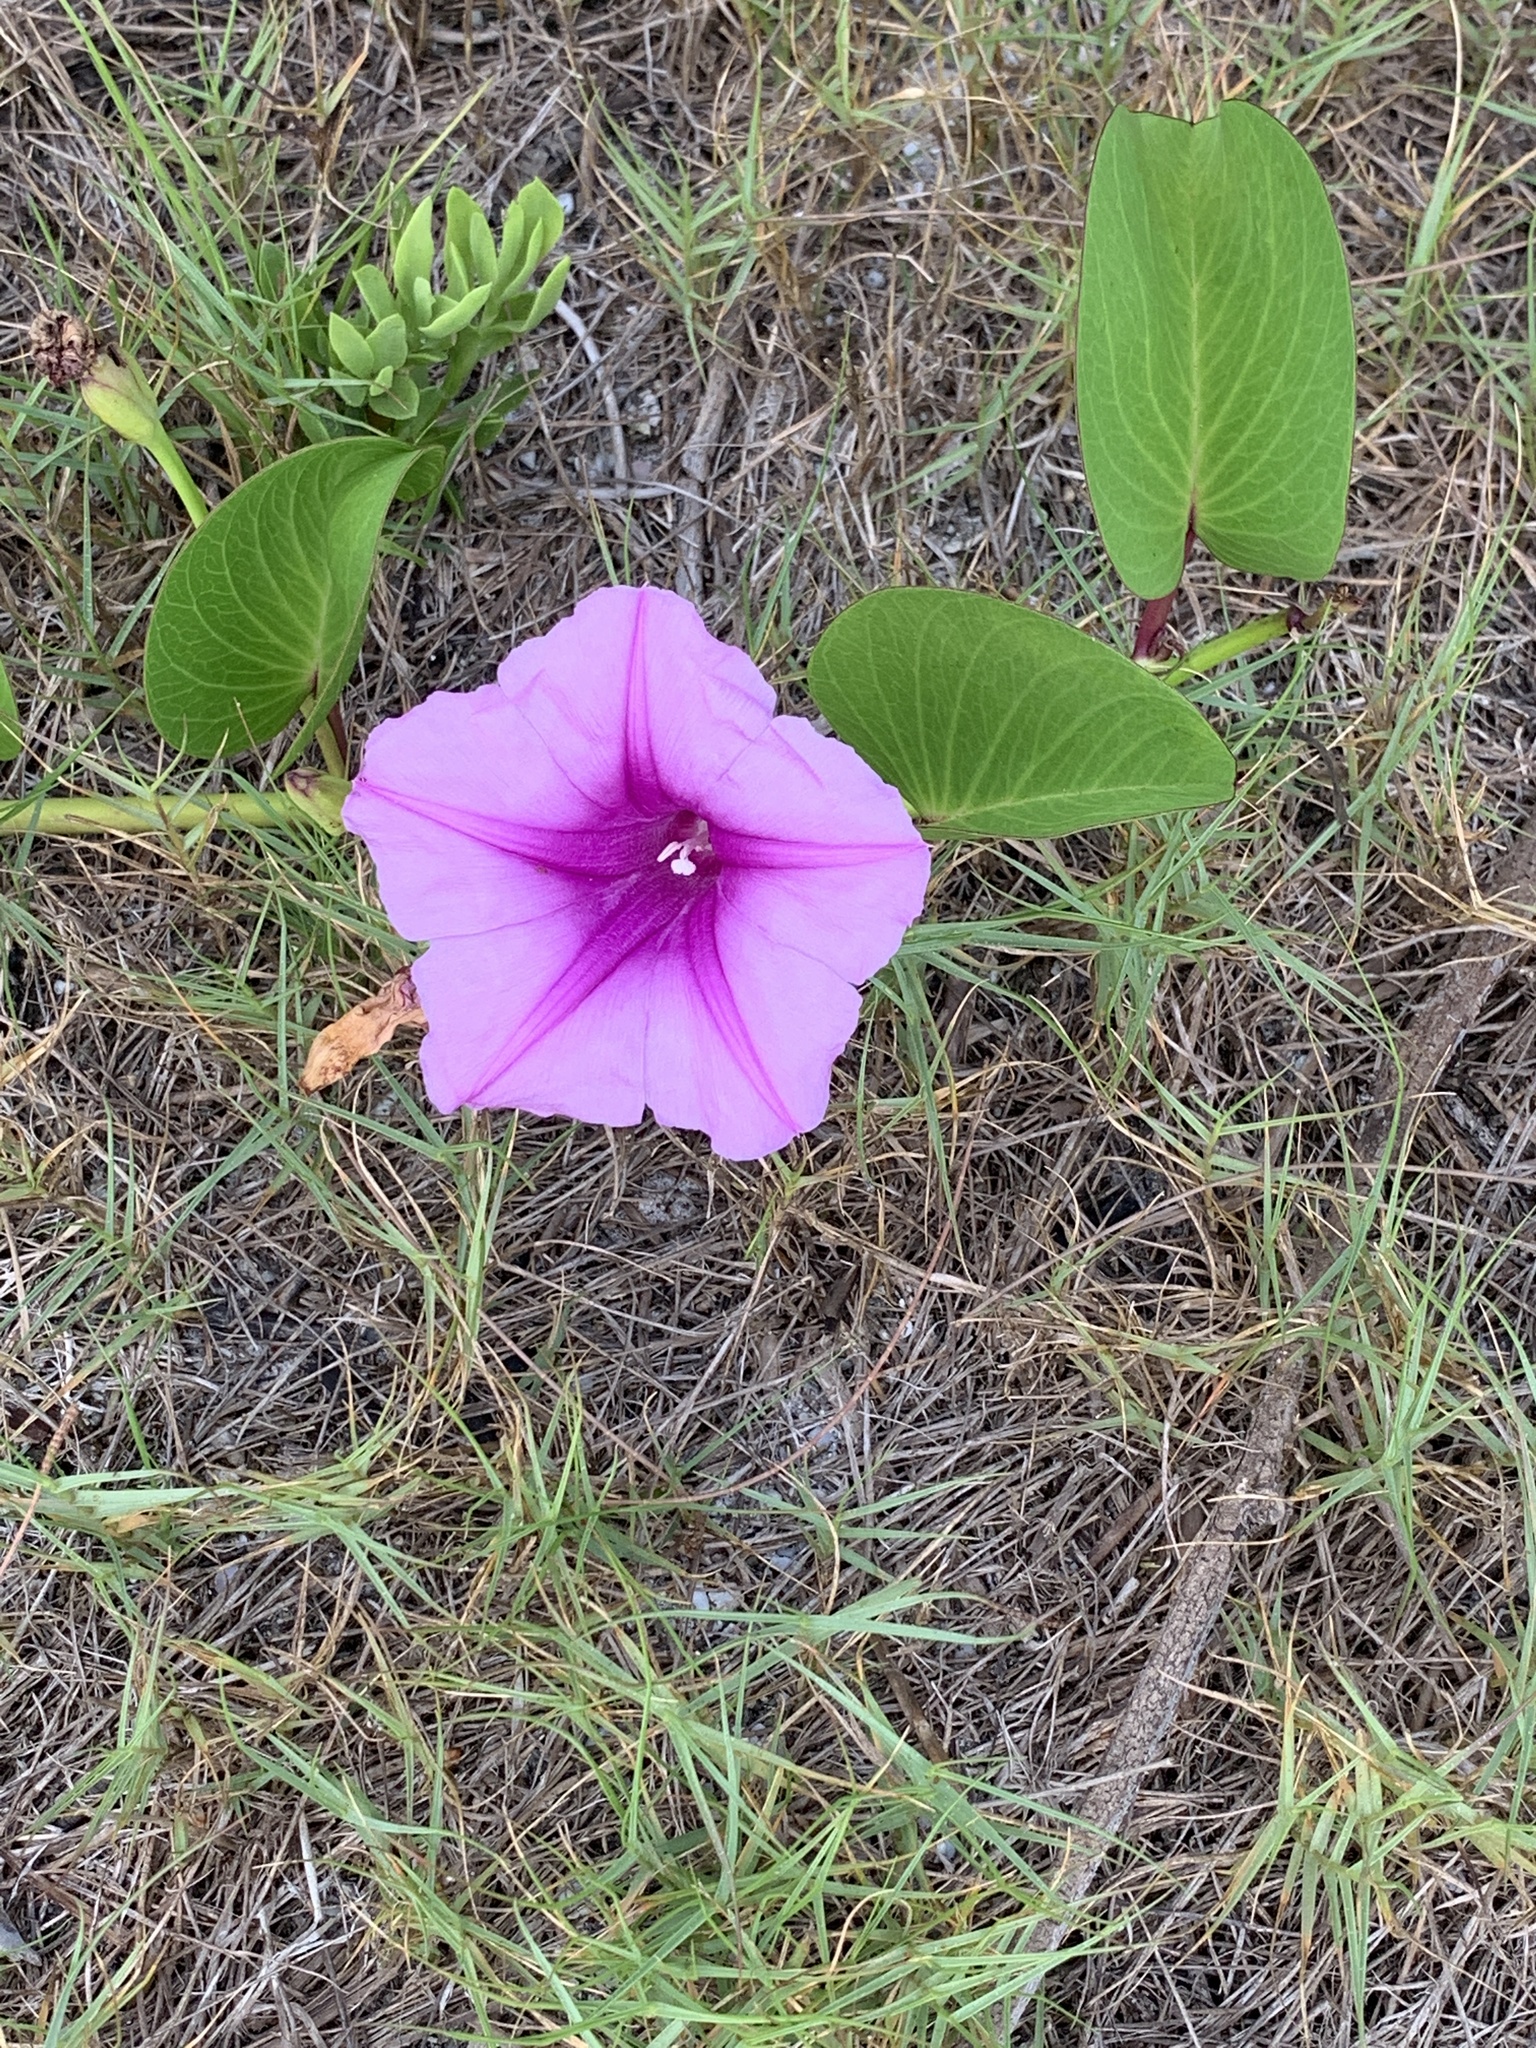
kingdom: Plantae
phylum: Tracheophyta
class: Magnoliopsida
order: Solanales
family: Convolvulaceae
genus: Ipomoea
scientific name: Ipomoea pes-caprae
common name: Beach morning glory
